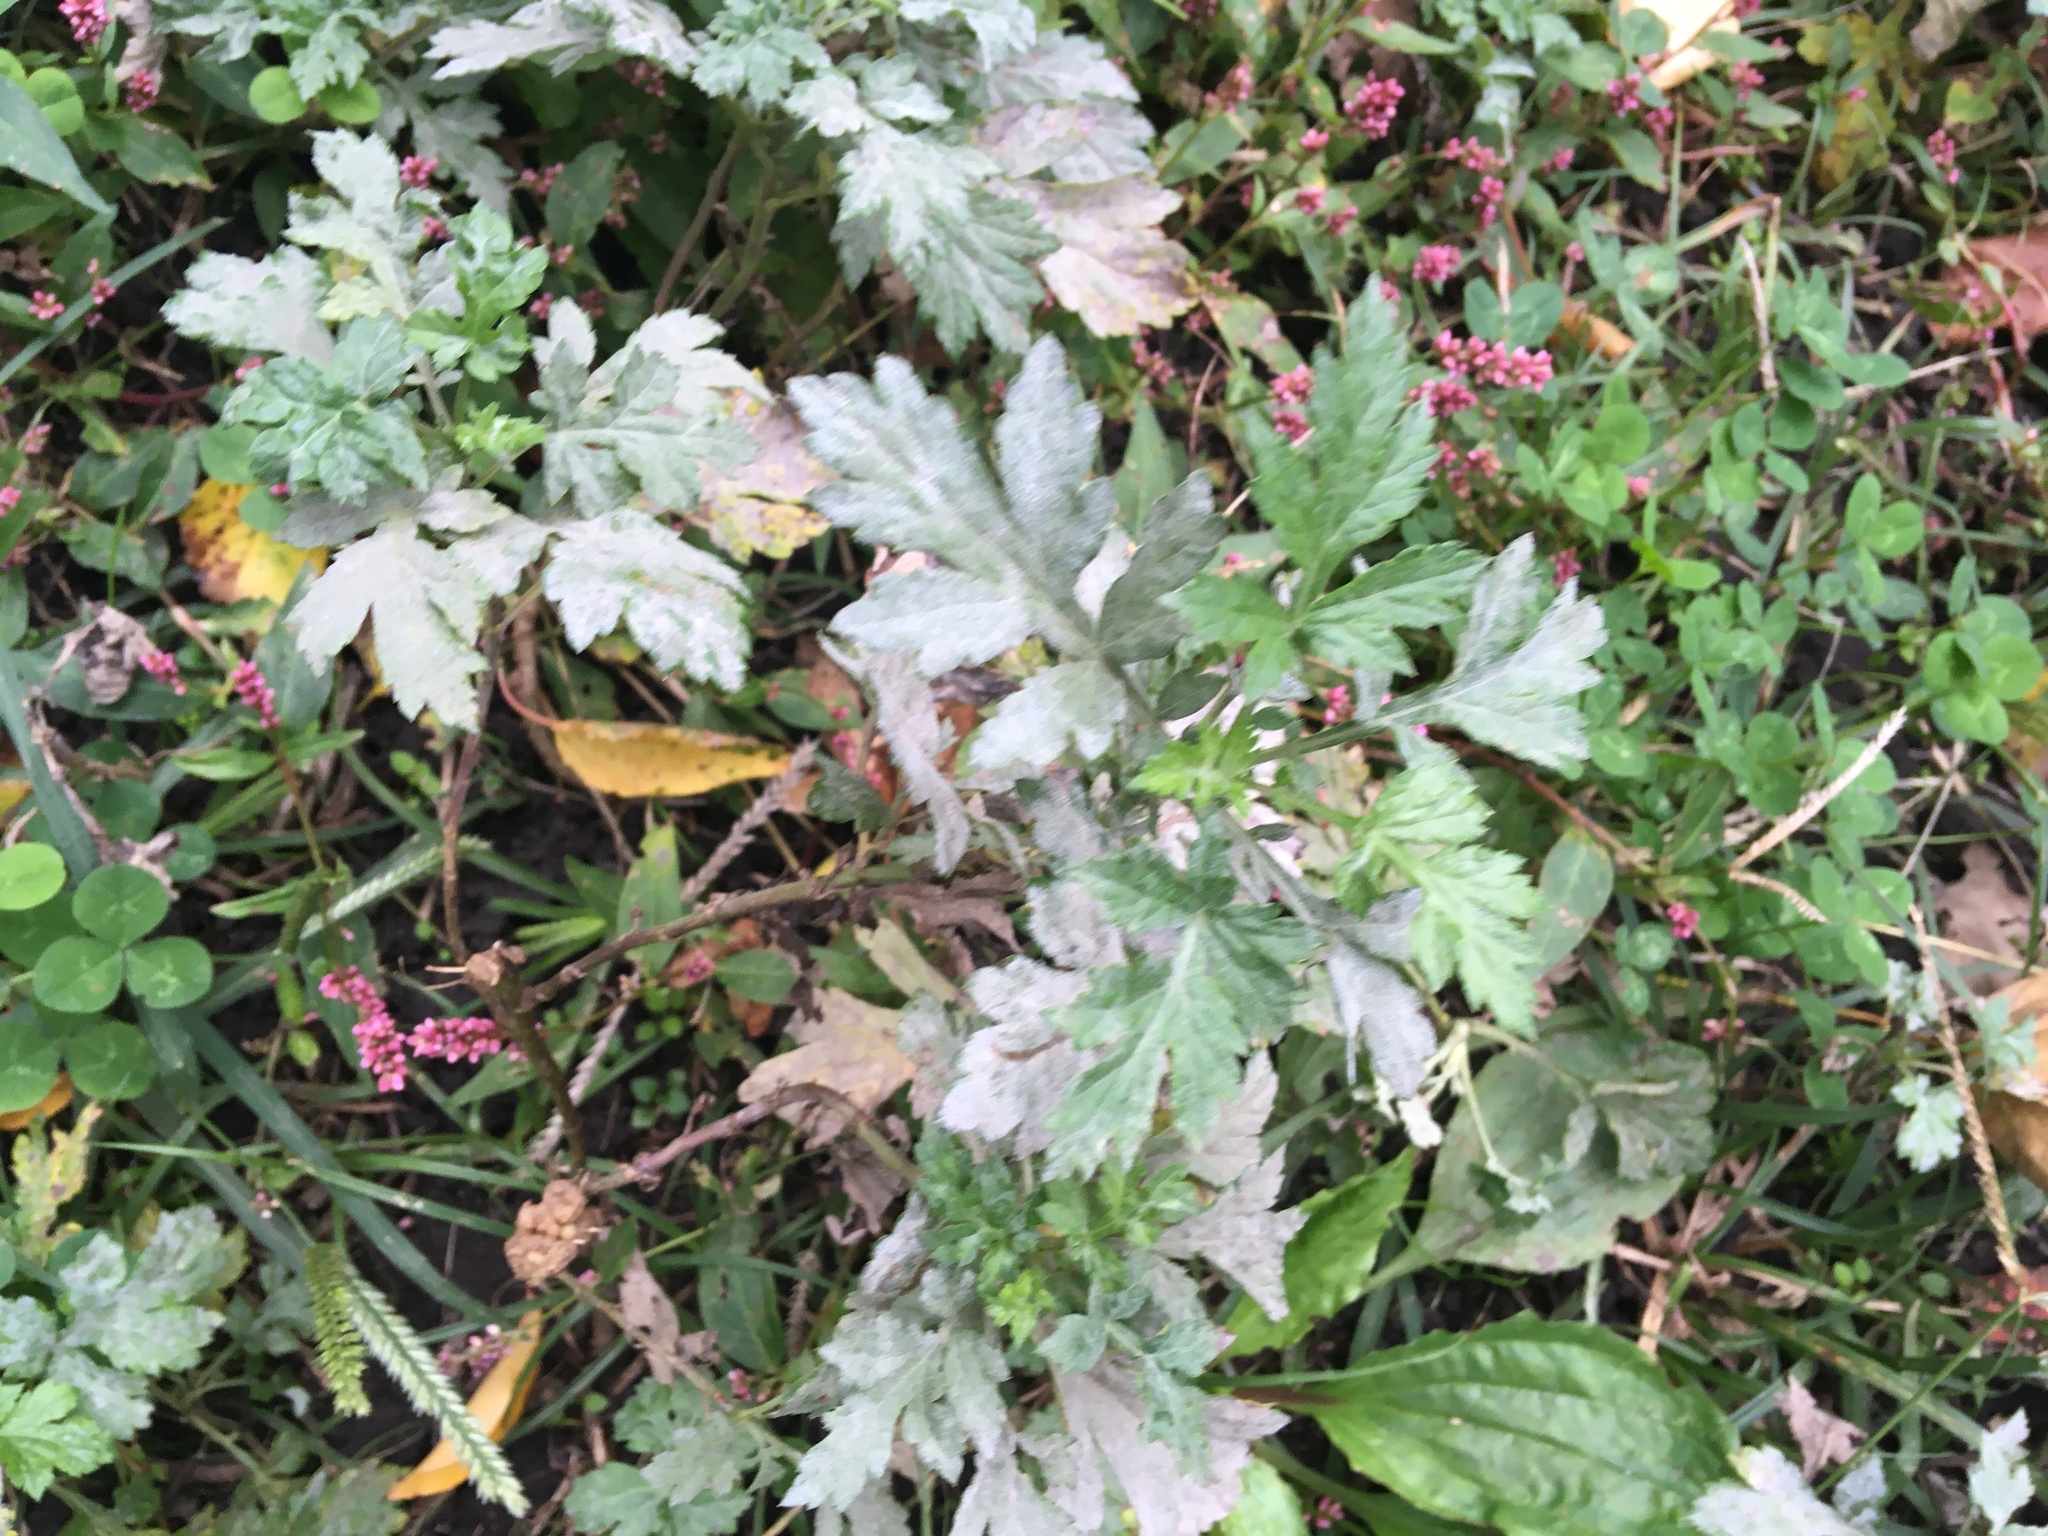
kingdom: Plantae
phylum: Tracheophyta
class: Magnoliopsida
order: Asterales
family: Asteraceae
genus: Artemisia
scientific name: Artemisia vulgaris
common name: Mugwort
